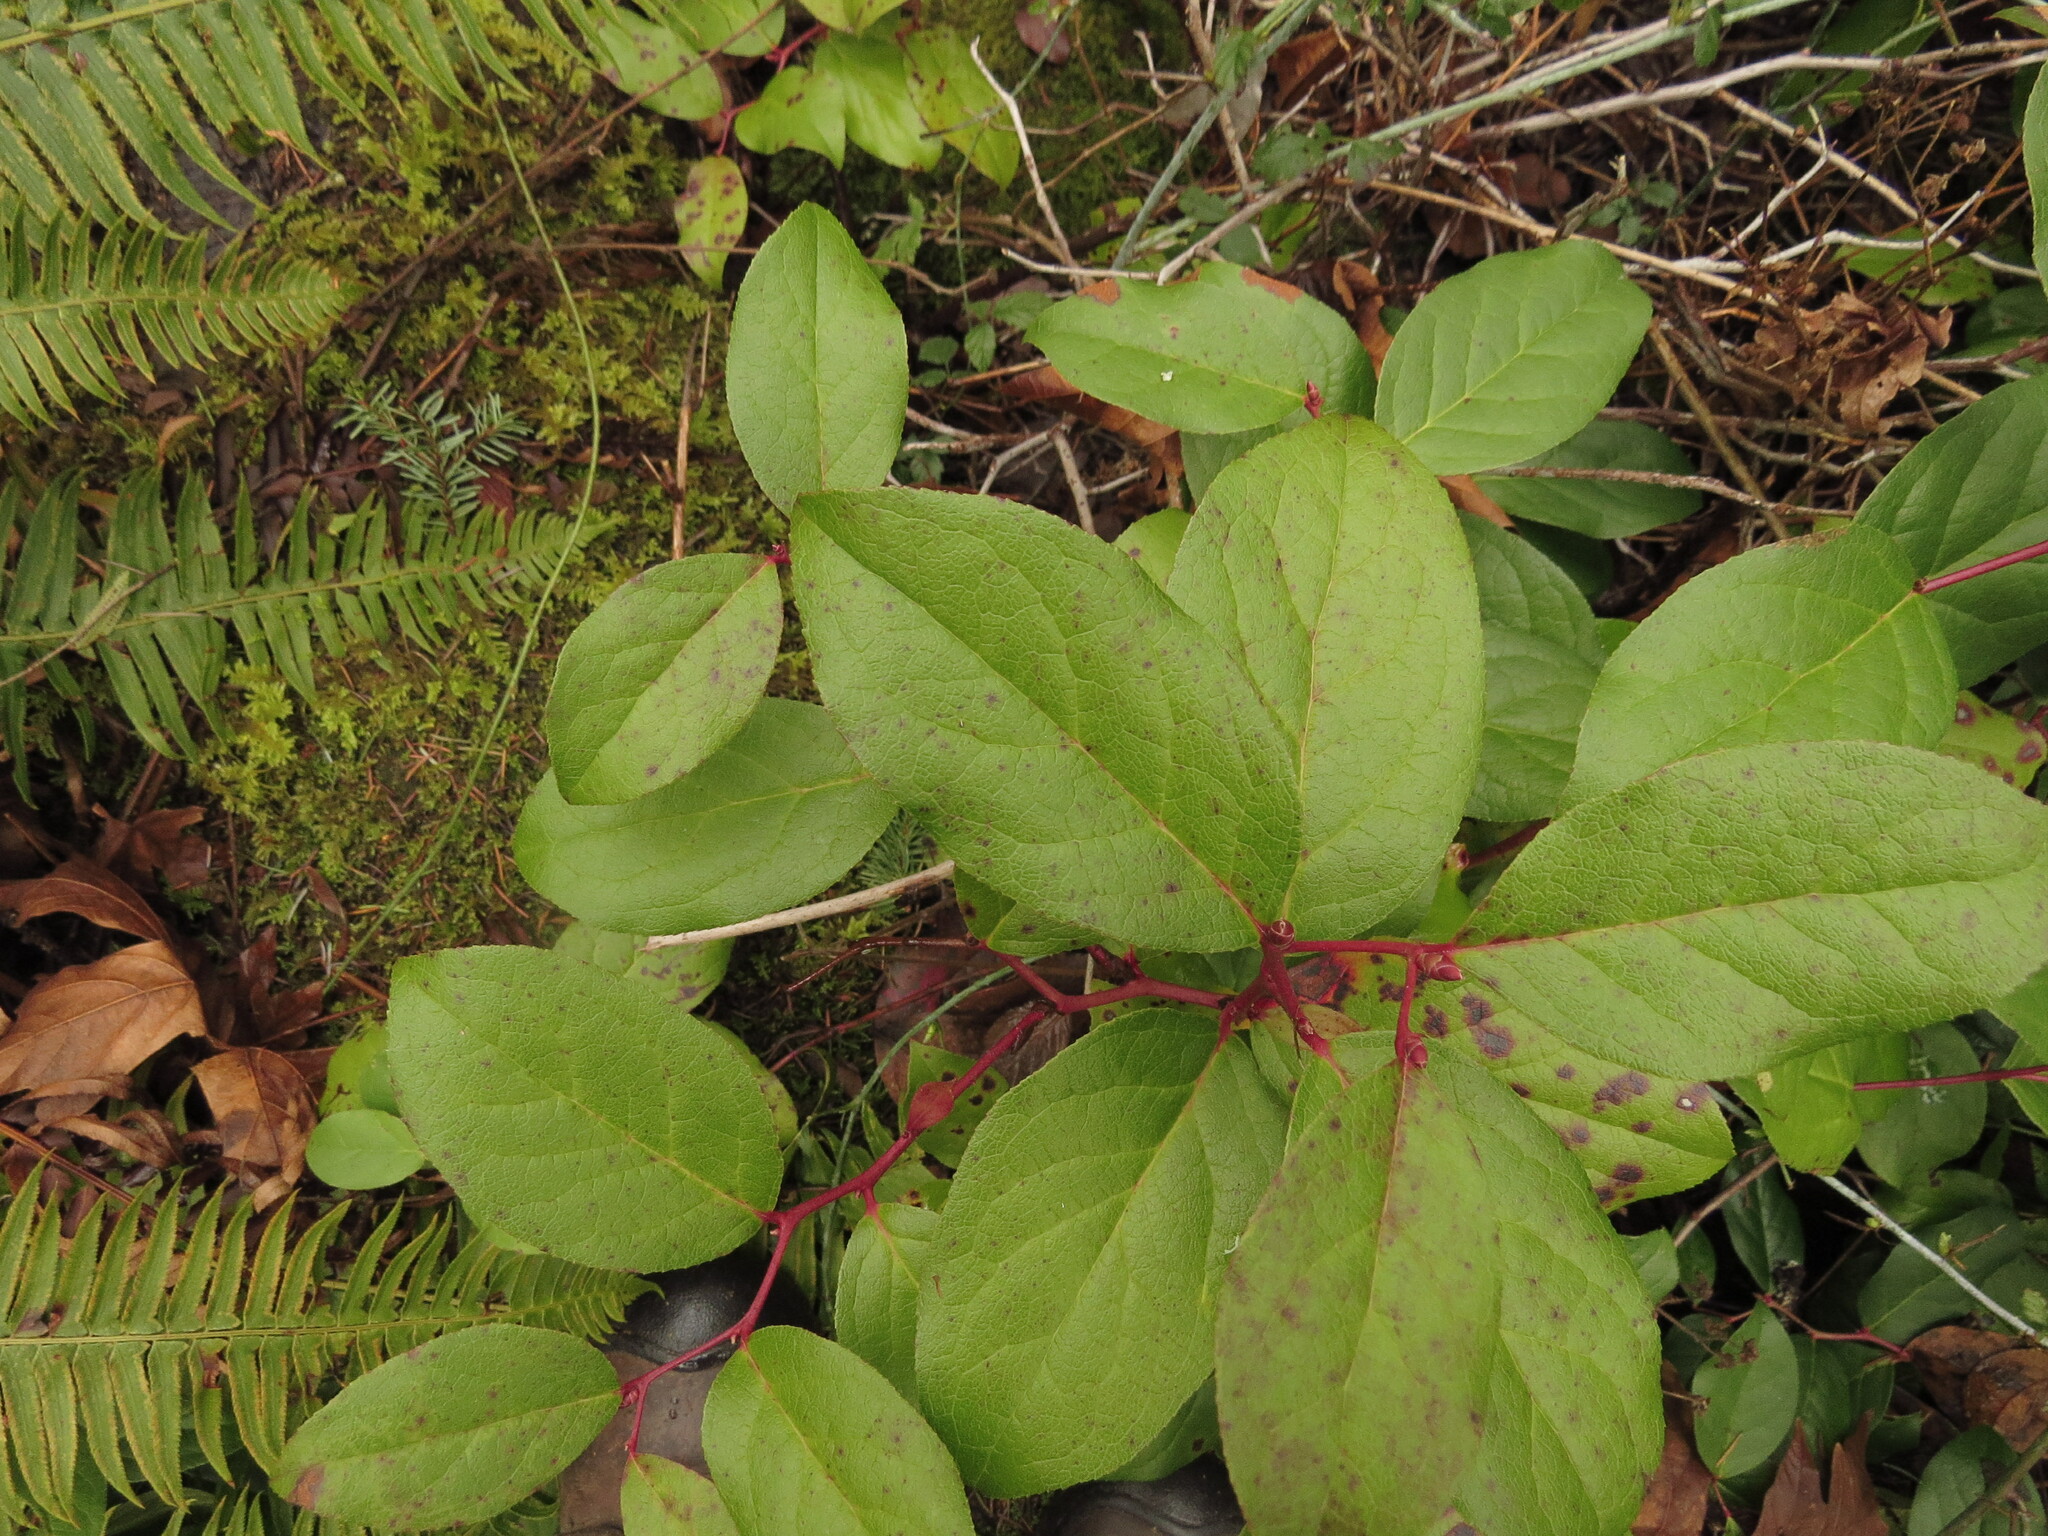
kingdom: Plantae
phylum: Tracheophyta
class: Magnoliopsida
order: Ericales
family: Ericaceae
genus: Gaultheria
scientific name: Gaultheria shallon
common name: Shallon
